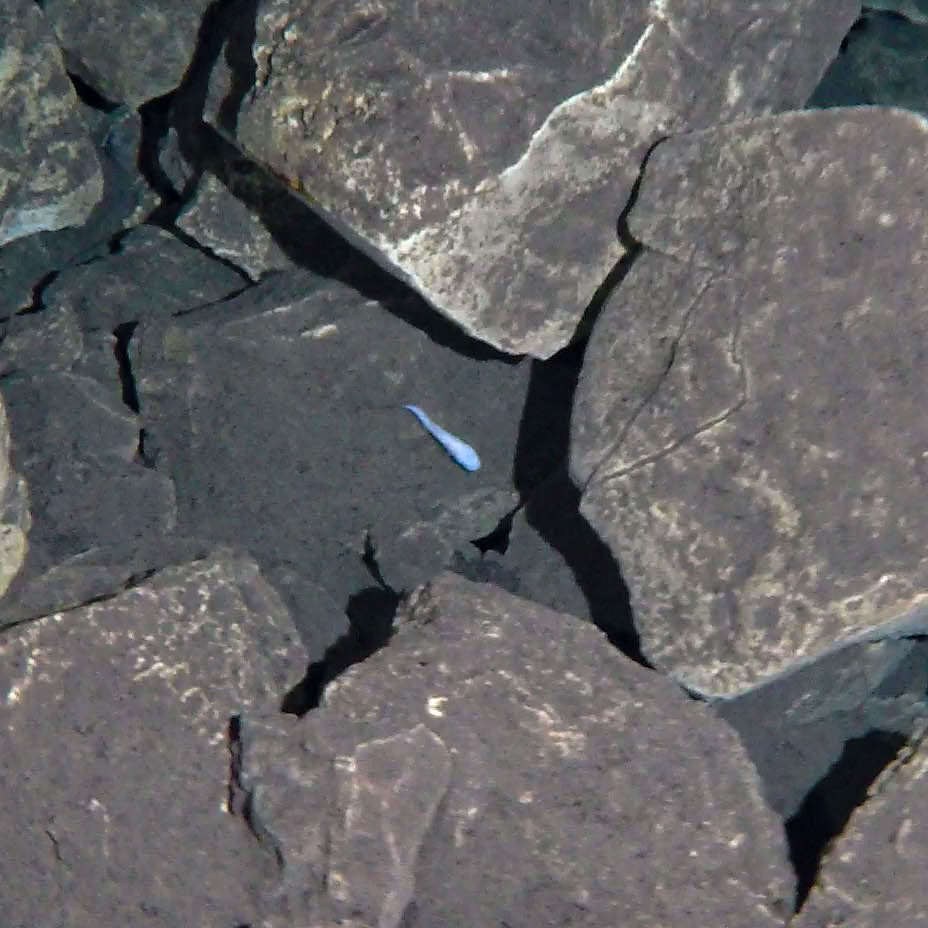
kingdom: Animalia
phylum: Chordata
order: Ophidiiformes
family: Bythitidae
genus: Typhliasina
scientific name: Typhliasina pearsei
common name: Dama ciega blanca
